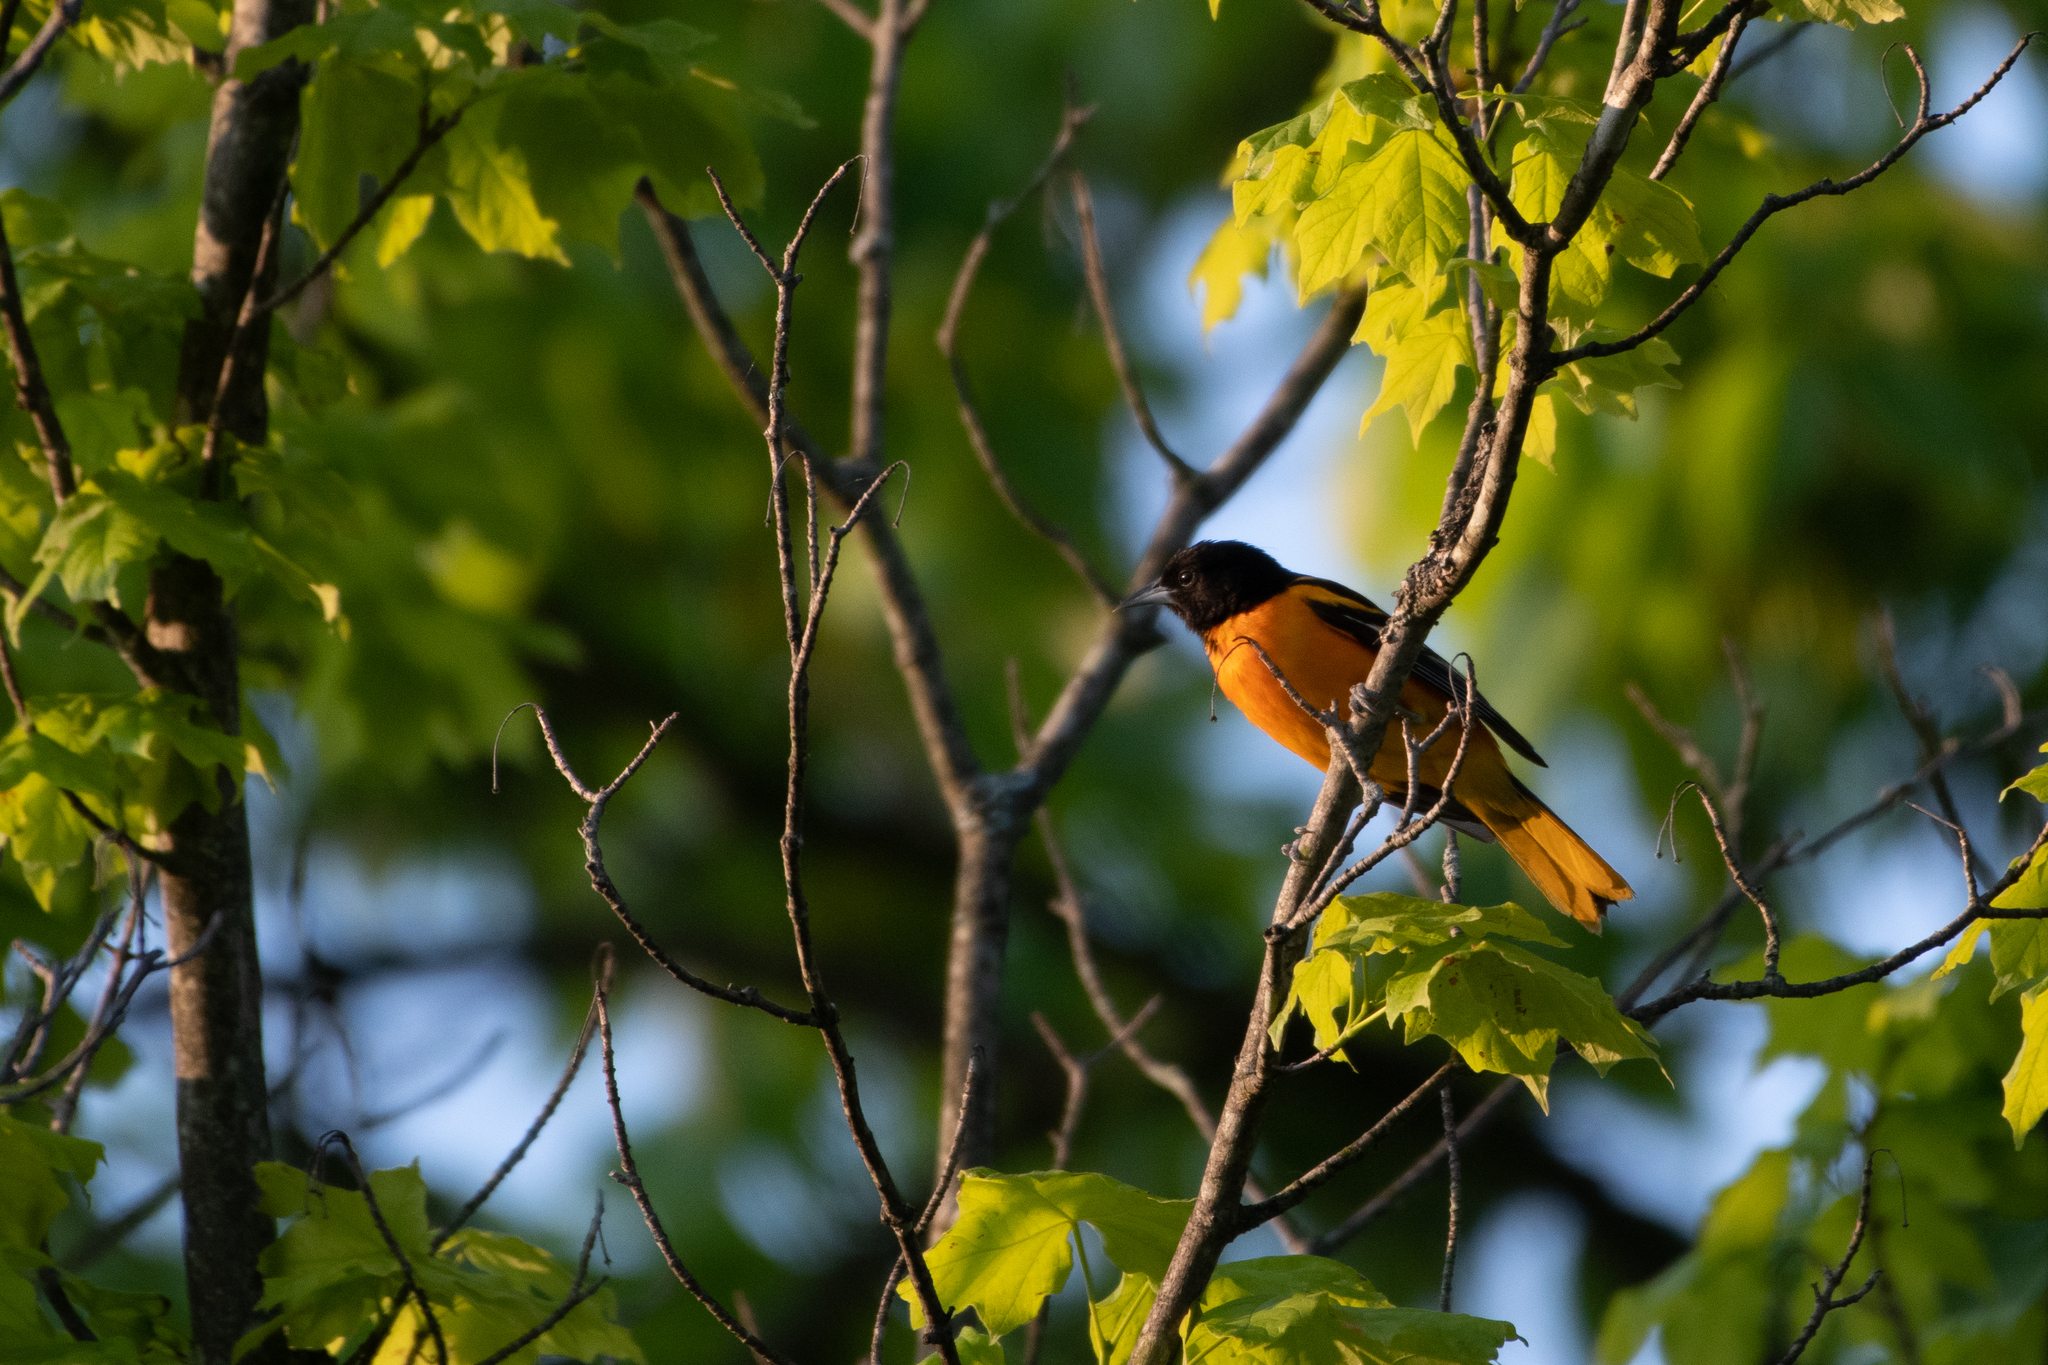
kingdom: Animalia
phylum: Chordata
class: Aves
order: Passeriformes
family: Icteridae
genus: Icterus
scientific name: Icterus galbula
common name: Baltimore oriole
